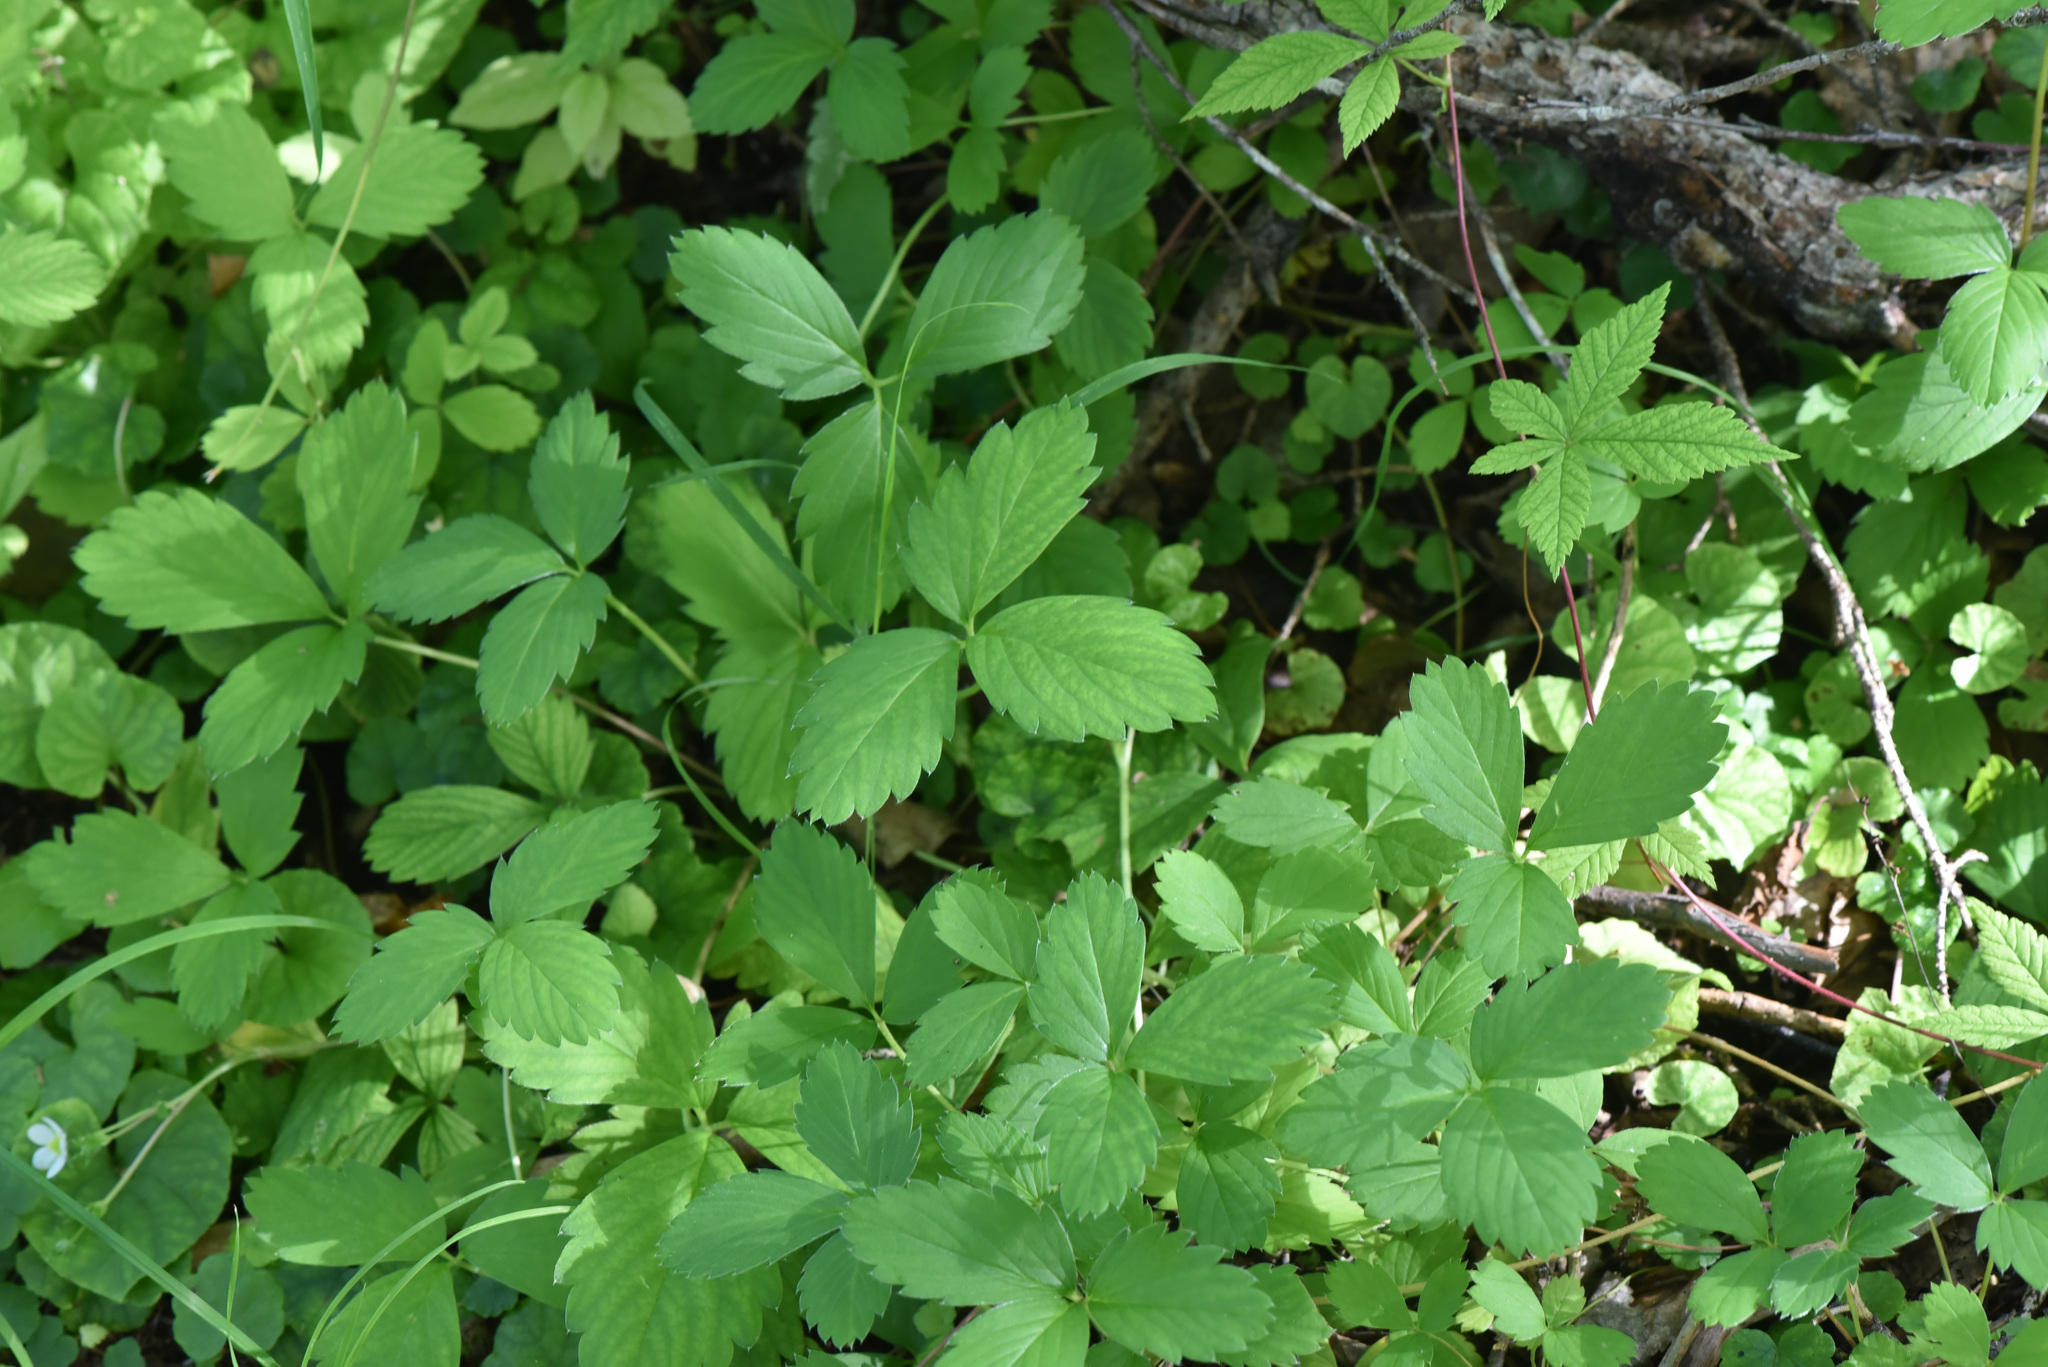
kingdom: Plantae
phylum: Tracheophyta
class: Magnoliopsida
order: Rosales
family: Rosaceae
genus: Fragaria
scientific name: Fragaria virginiana
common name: Thickleaved wild strawberry
